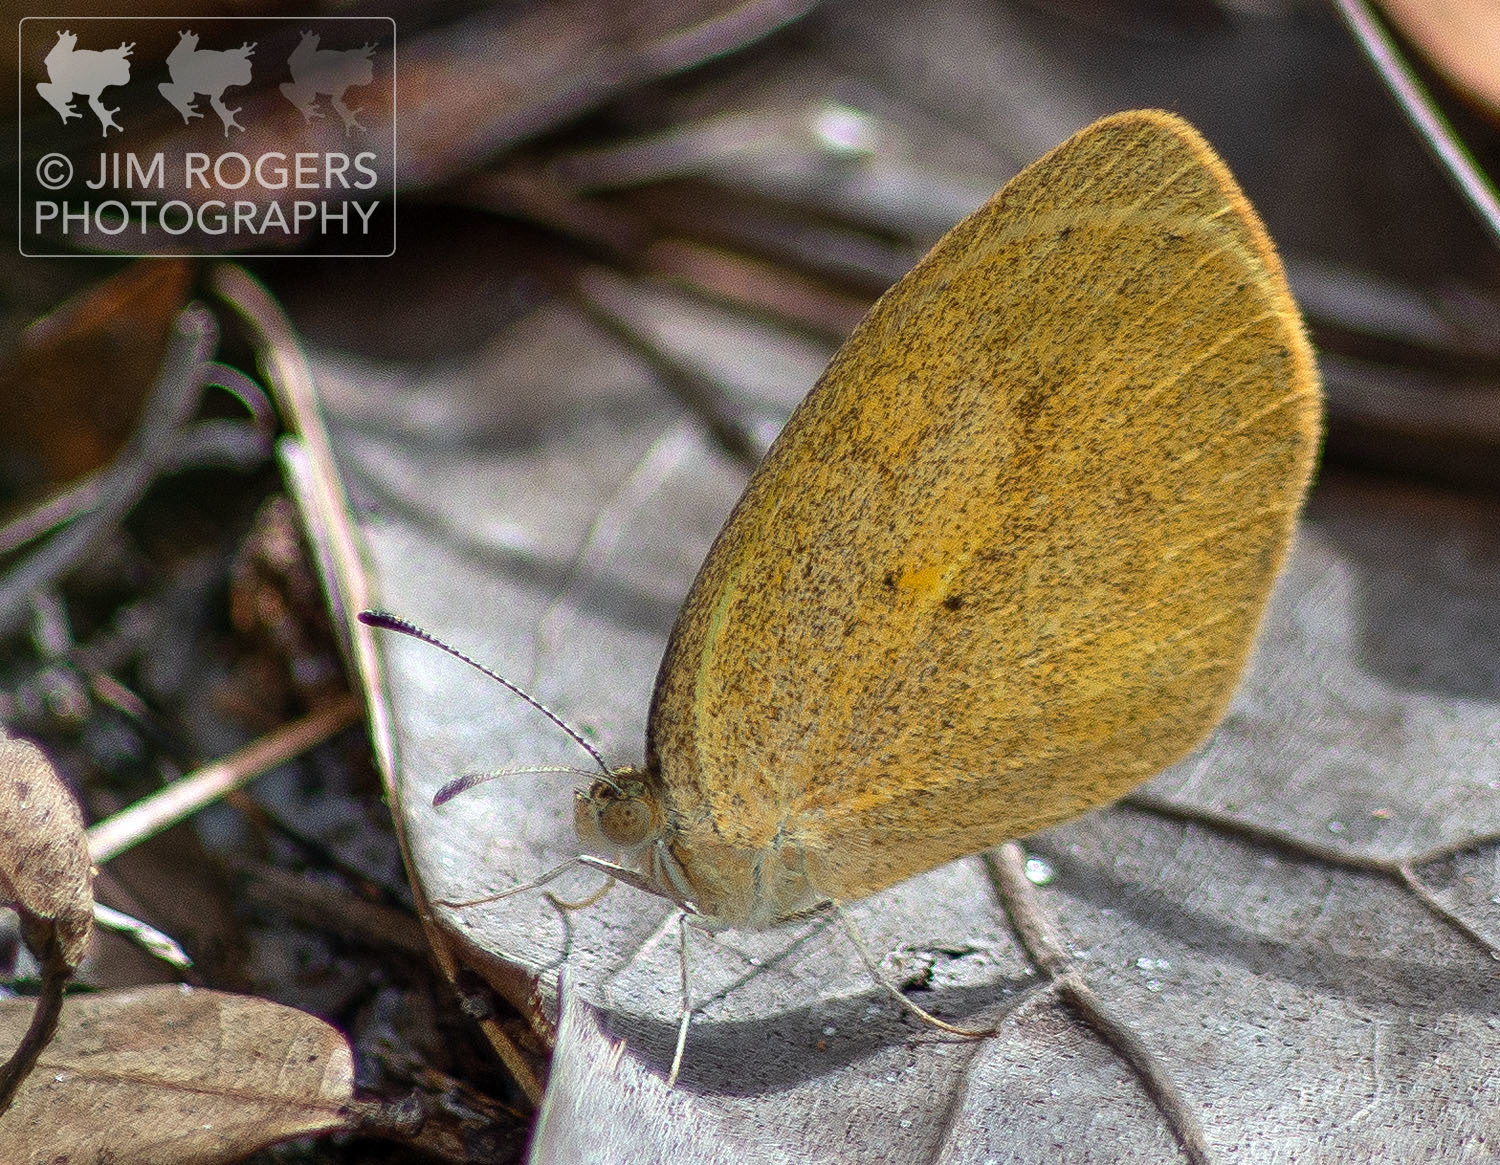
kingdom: Animalia
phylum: Arthropoda
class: Insecta
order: Lepidoptera
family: Pieridae
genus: Eurema
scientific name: Eurema daira
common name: Barred sulphur
